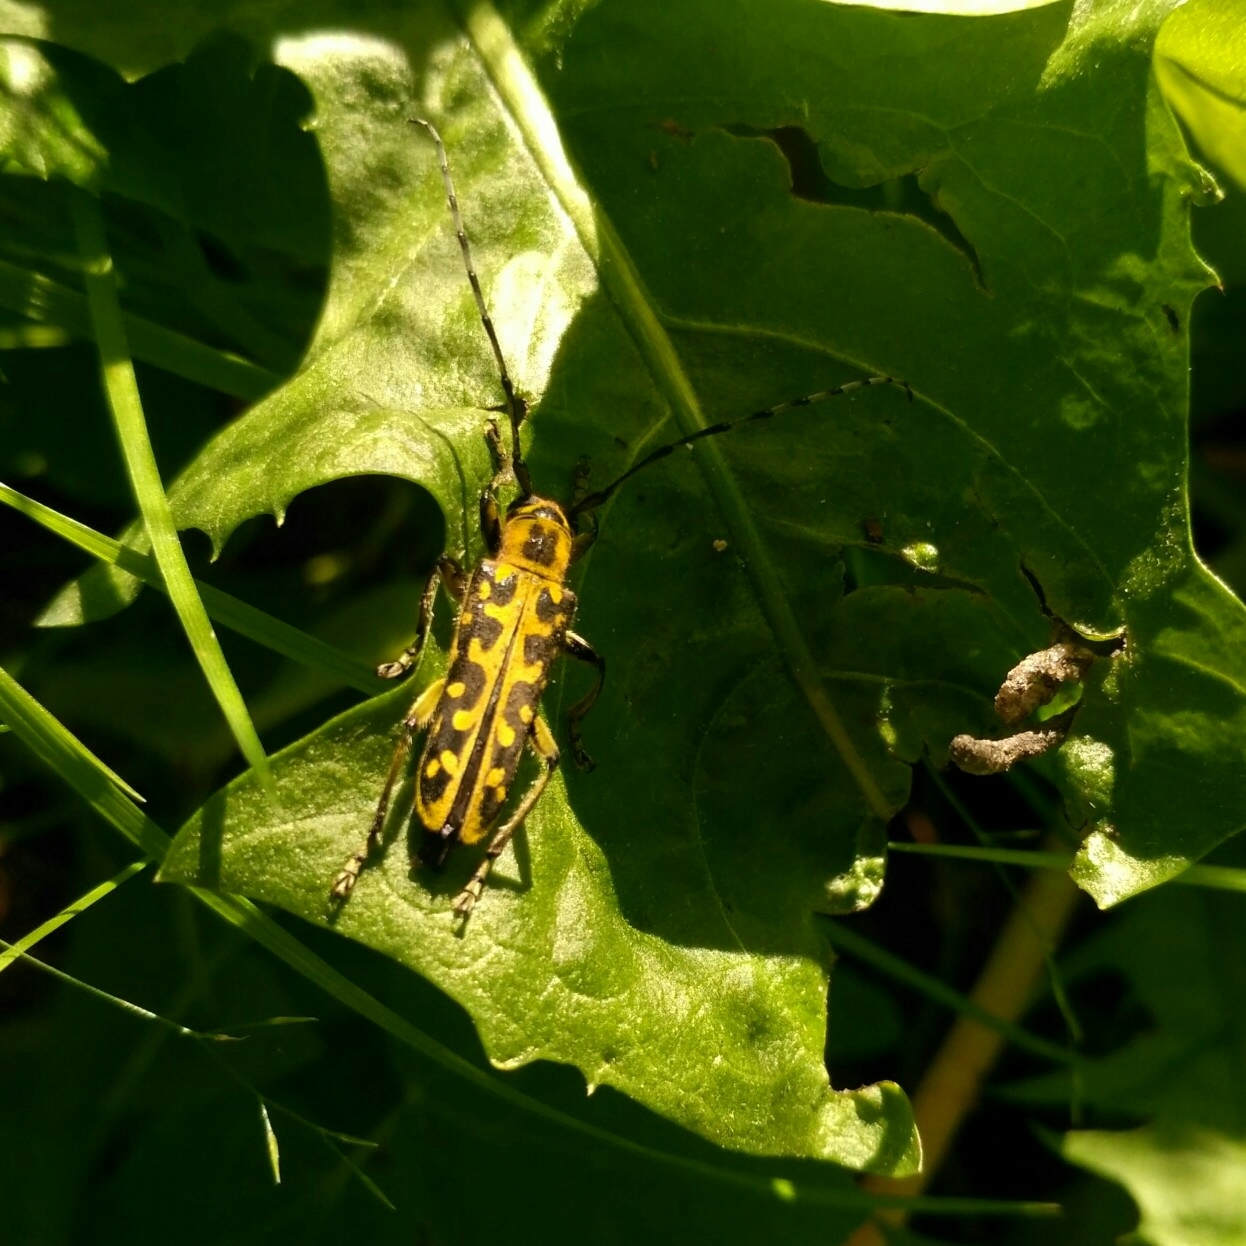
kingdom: Animalia
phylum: Arthropoda
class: Insecta
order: Coleoptera
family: Cerambycidae
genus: Saperda
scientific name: Saperda scalaris
